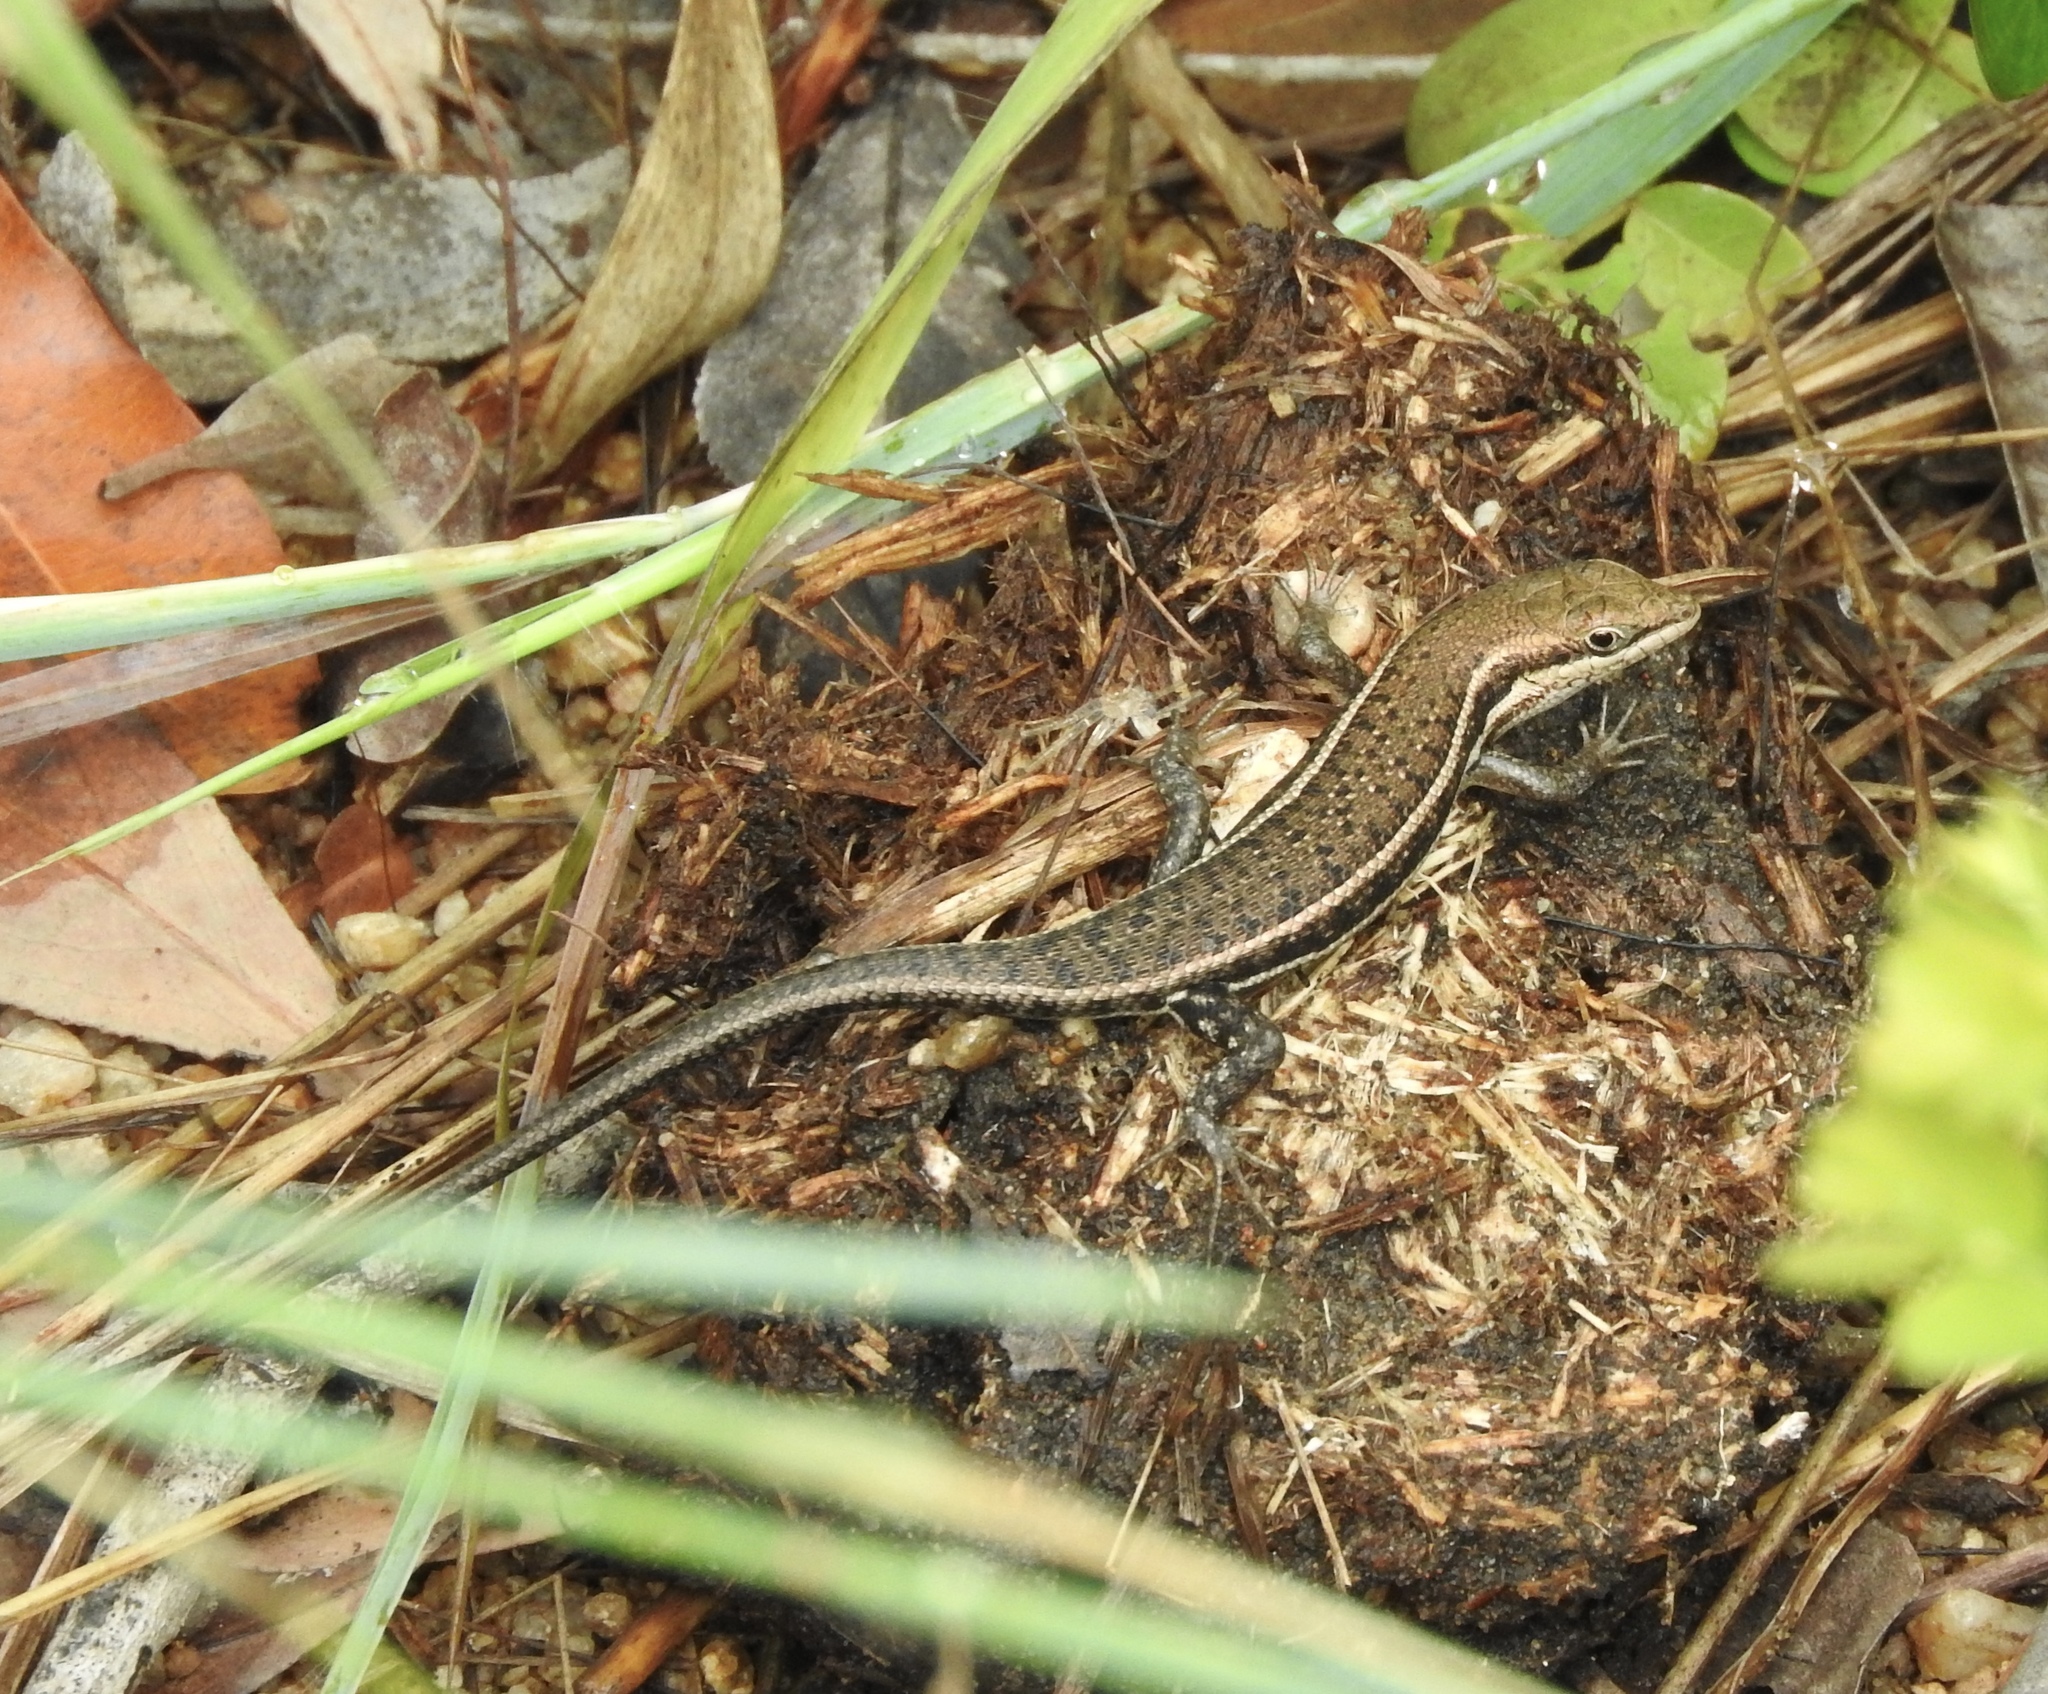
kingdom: Animalia
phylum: Chordata
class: Squamata
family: Scincidae
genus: Trachylepis
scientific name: Trachylepis damarana
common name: Damara skink
